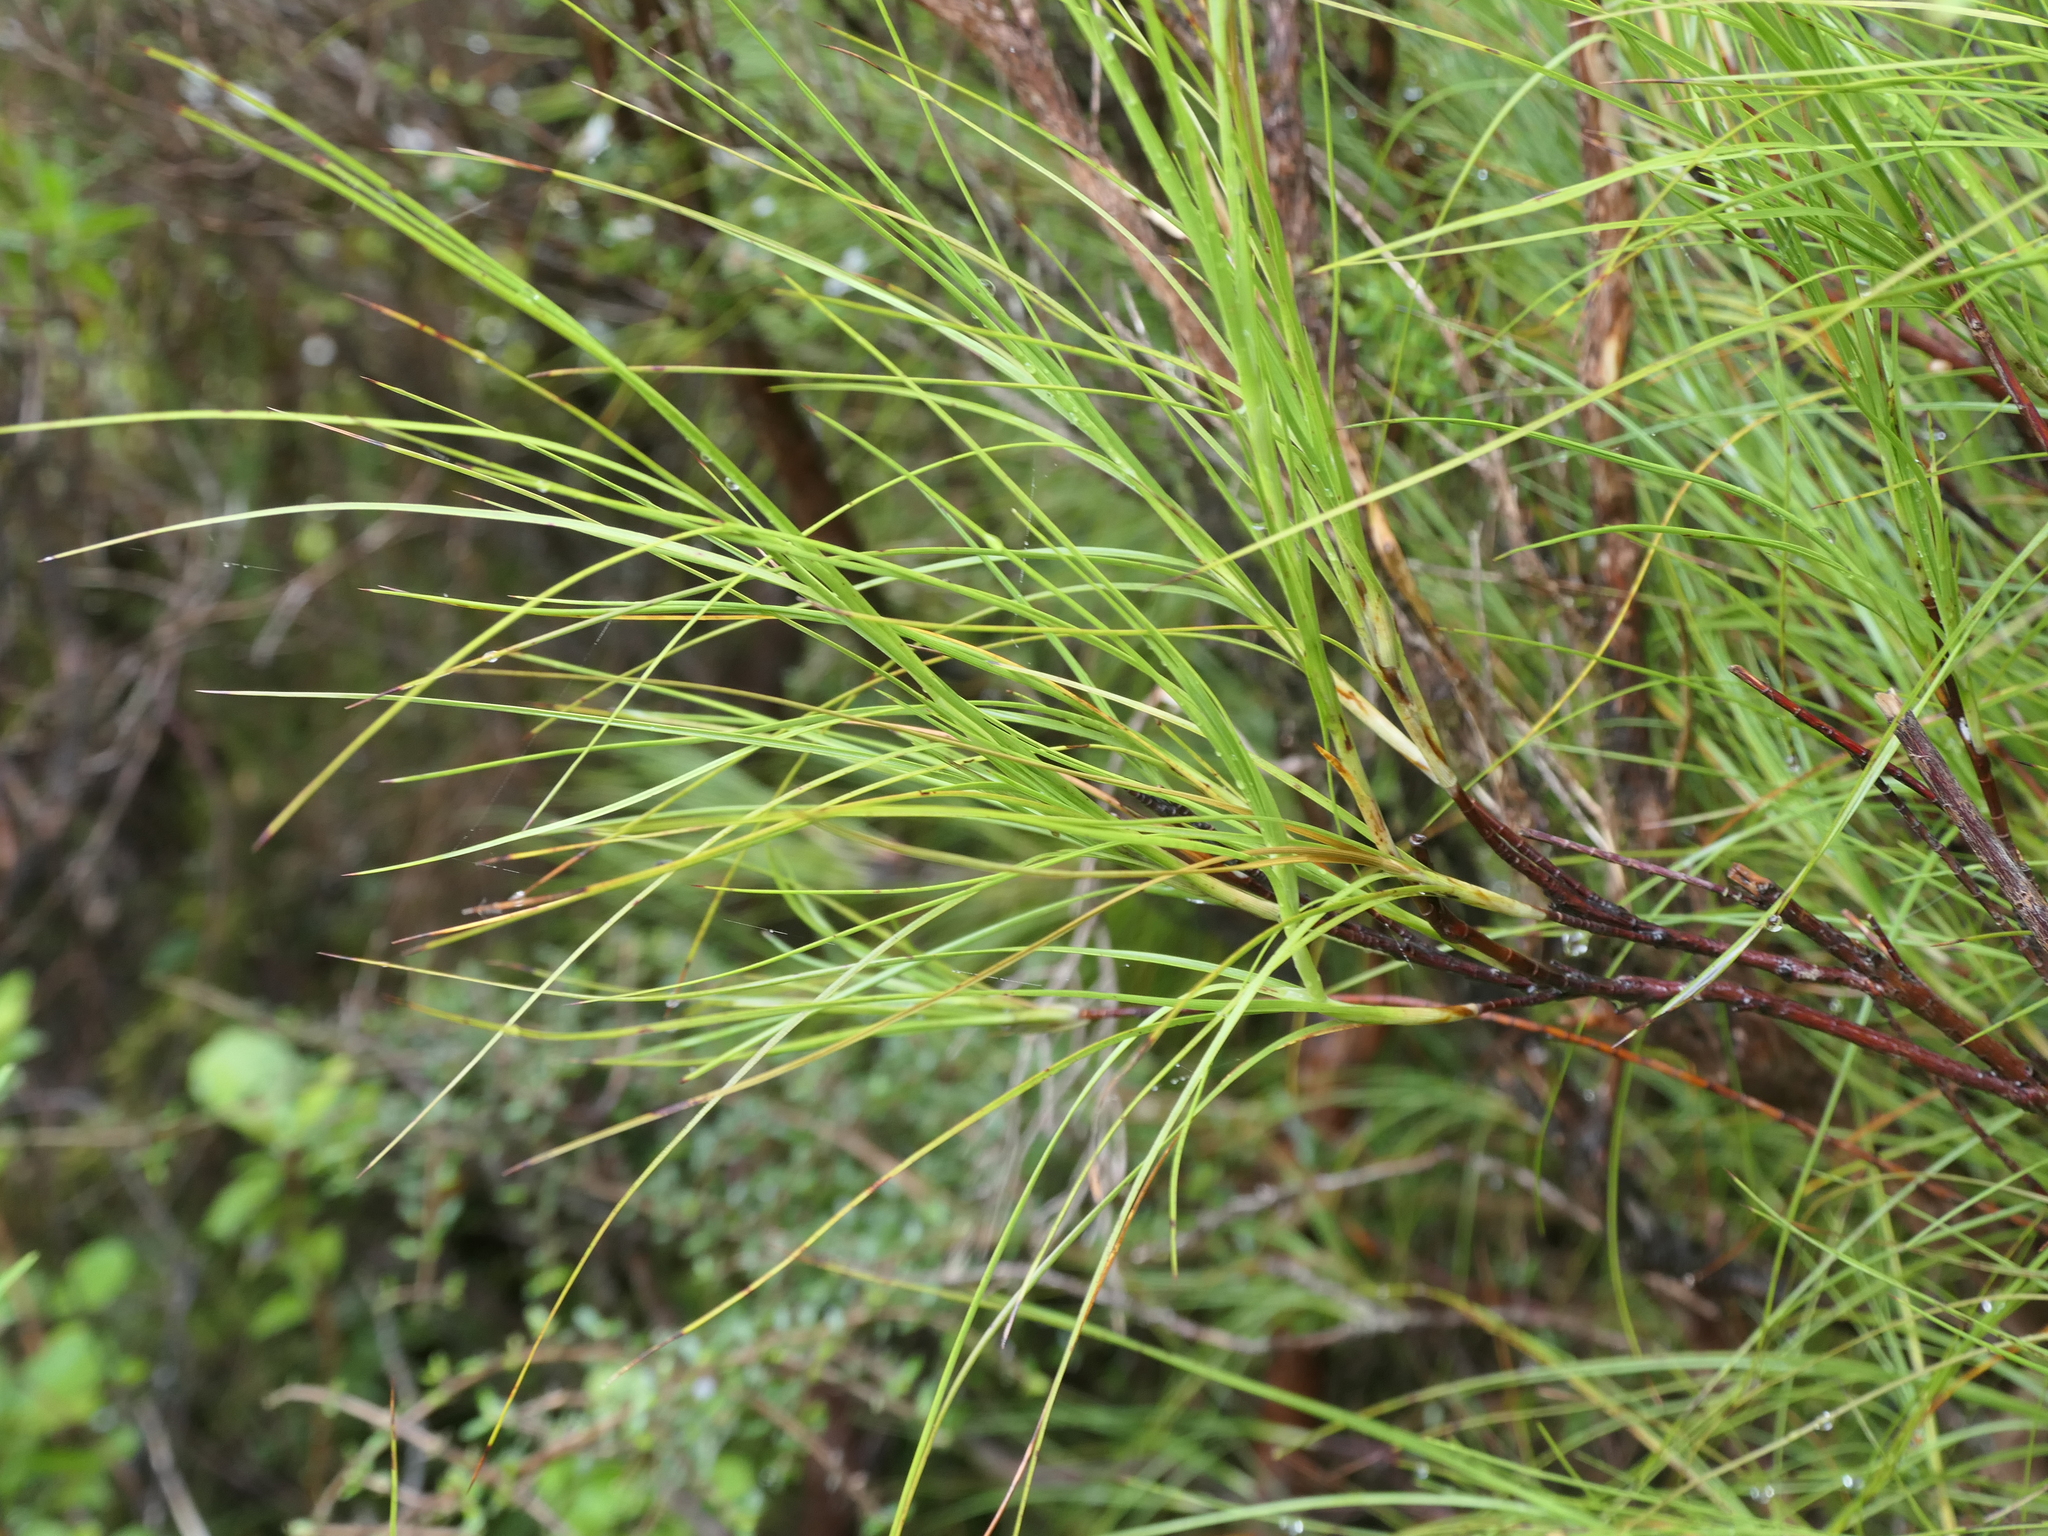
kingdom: Plantae
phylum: Tracheophyta
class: Magnoliopsida
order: Ericales
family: Ericaceae
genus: Dracophyllum
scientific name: Dracophyllum filifolium
